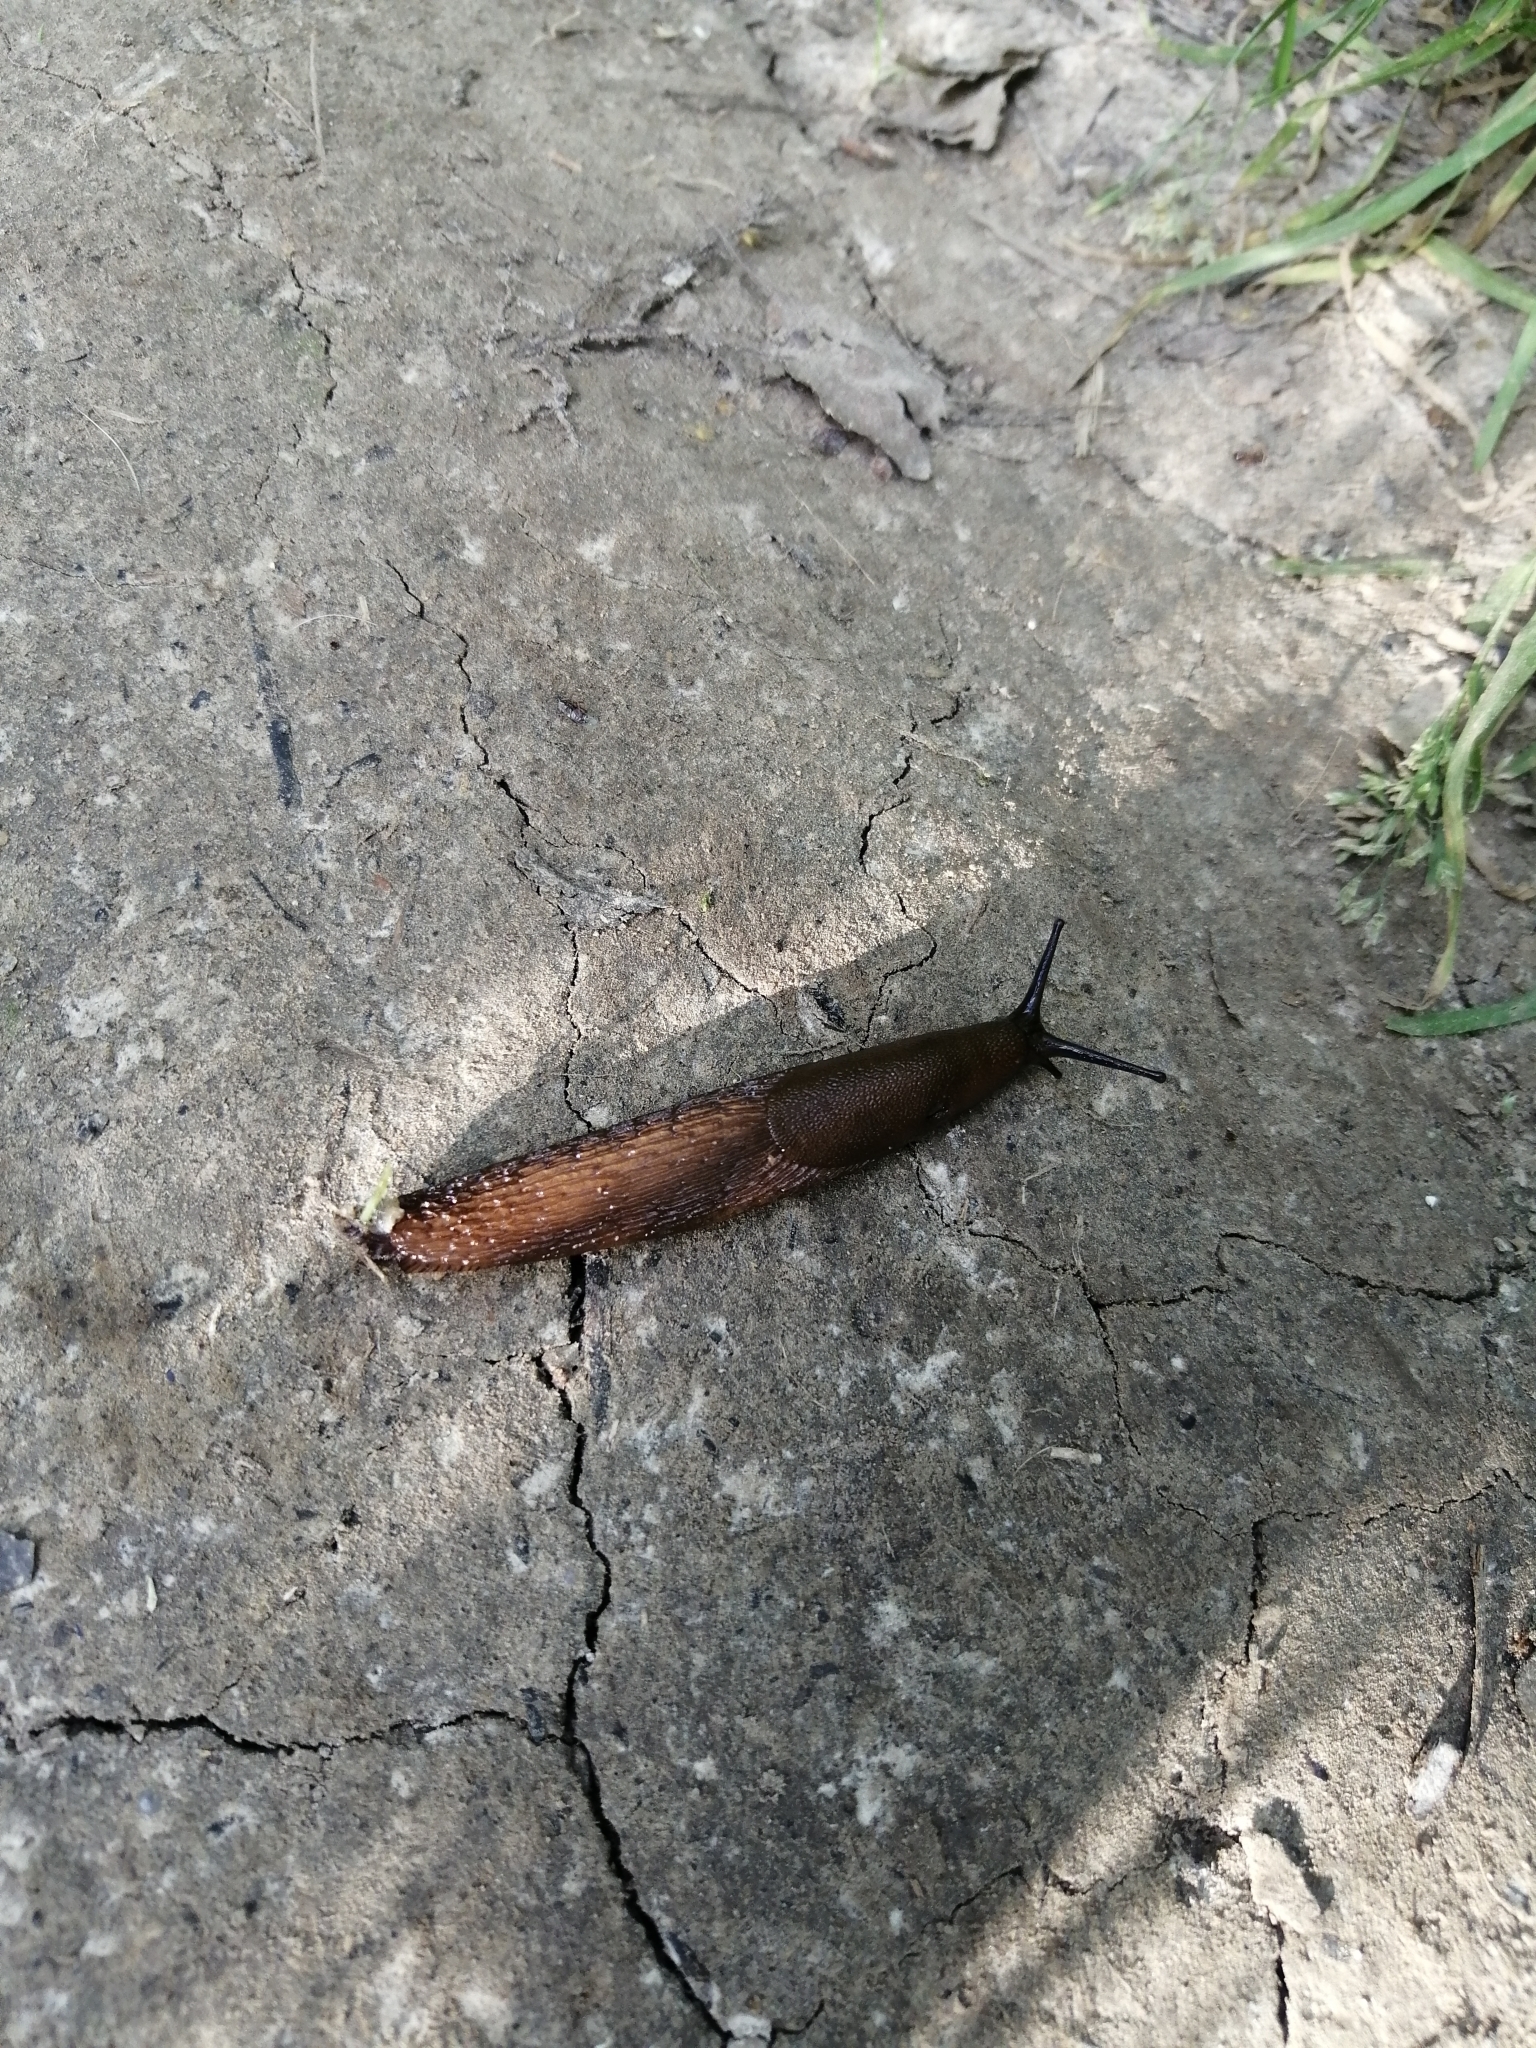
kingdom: Animalia
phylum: Mollusca
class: Gastropoda
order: Stylommatophora
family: Arionidae
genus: Arion
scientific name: Arion
